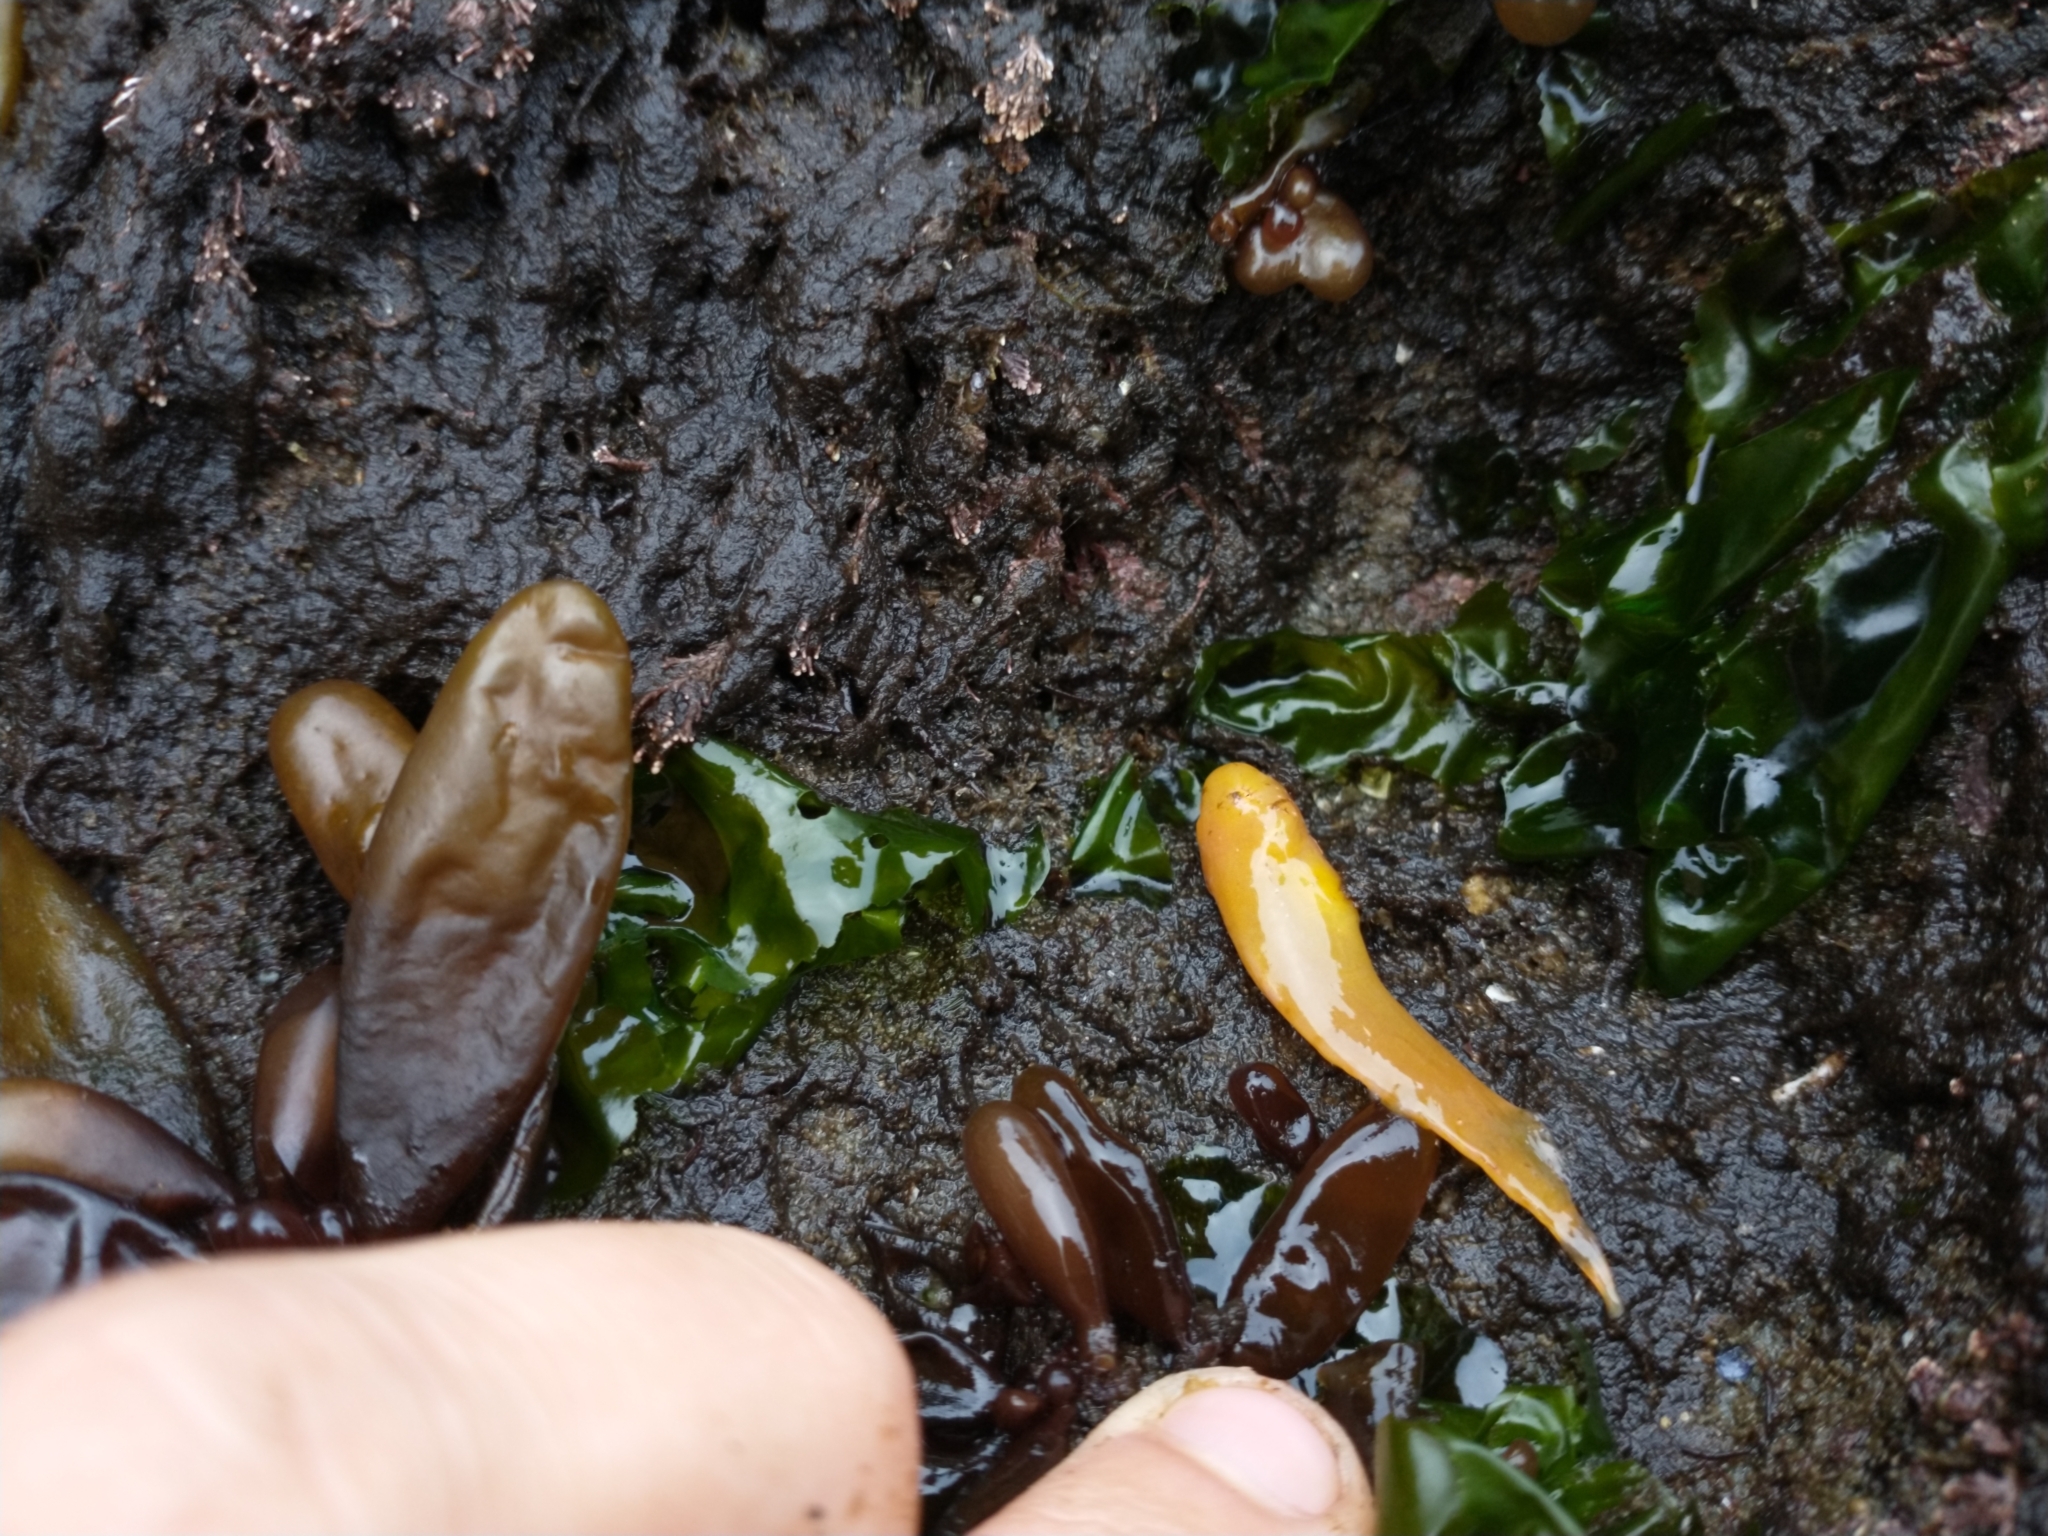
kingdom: Animalia
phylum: Chordata
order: Scorpaeniformes
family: Liparidae
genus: Liparis
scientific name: Liparis florae
